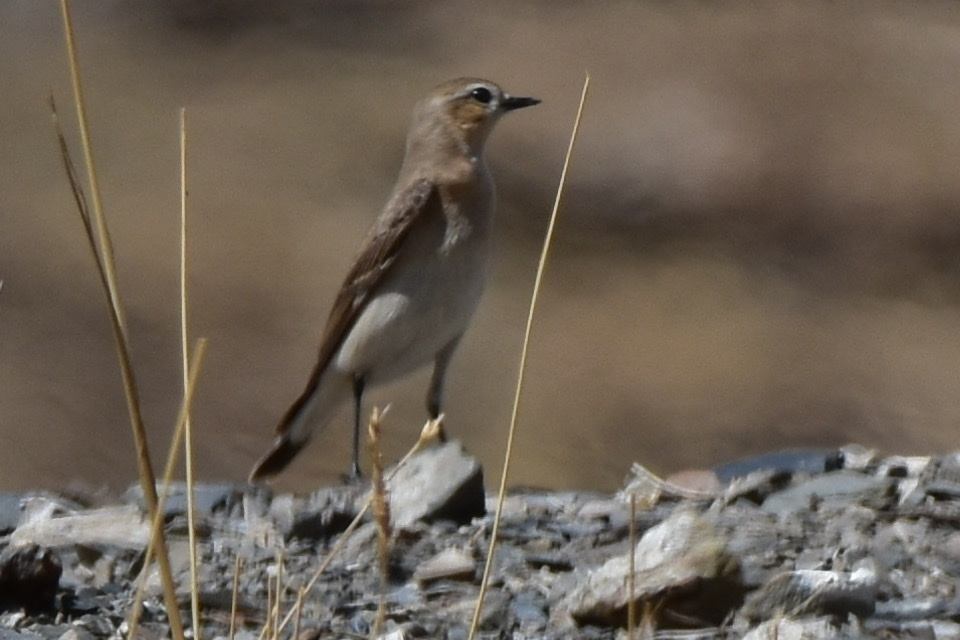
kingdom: Animalia
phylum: Chordata
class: Aves
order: Passeriformes
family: Muscicapidae
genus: Oenanthe
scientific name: Oenanthe oenanthe
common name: Northern wheatear
